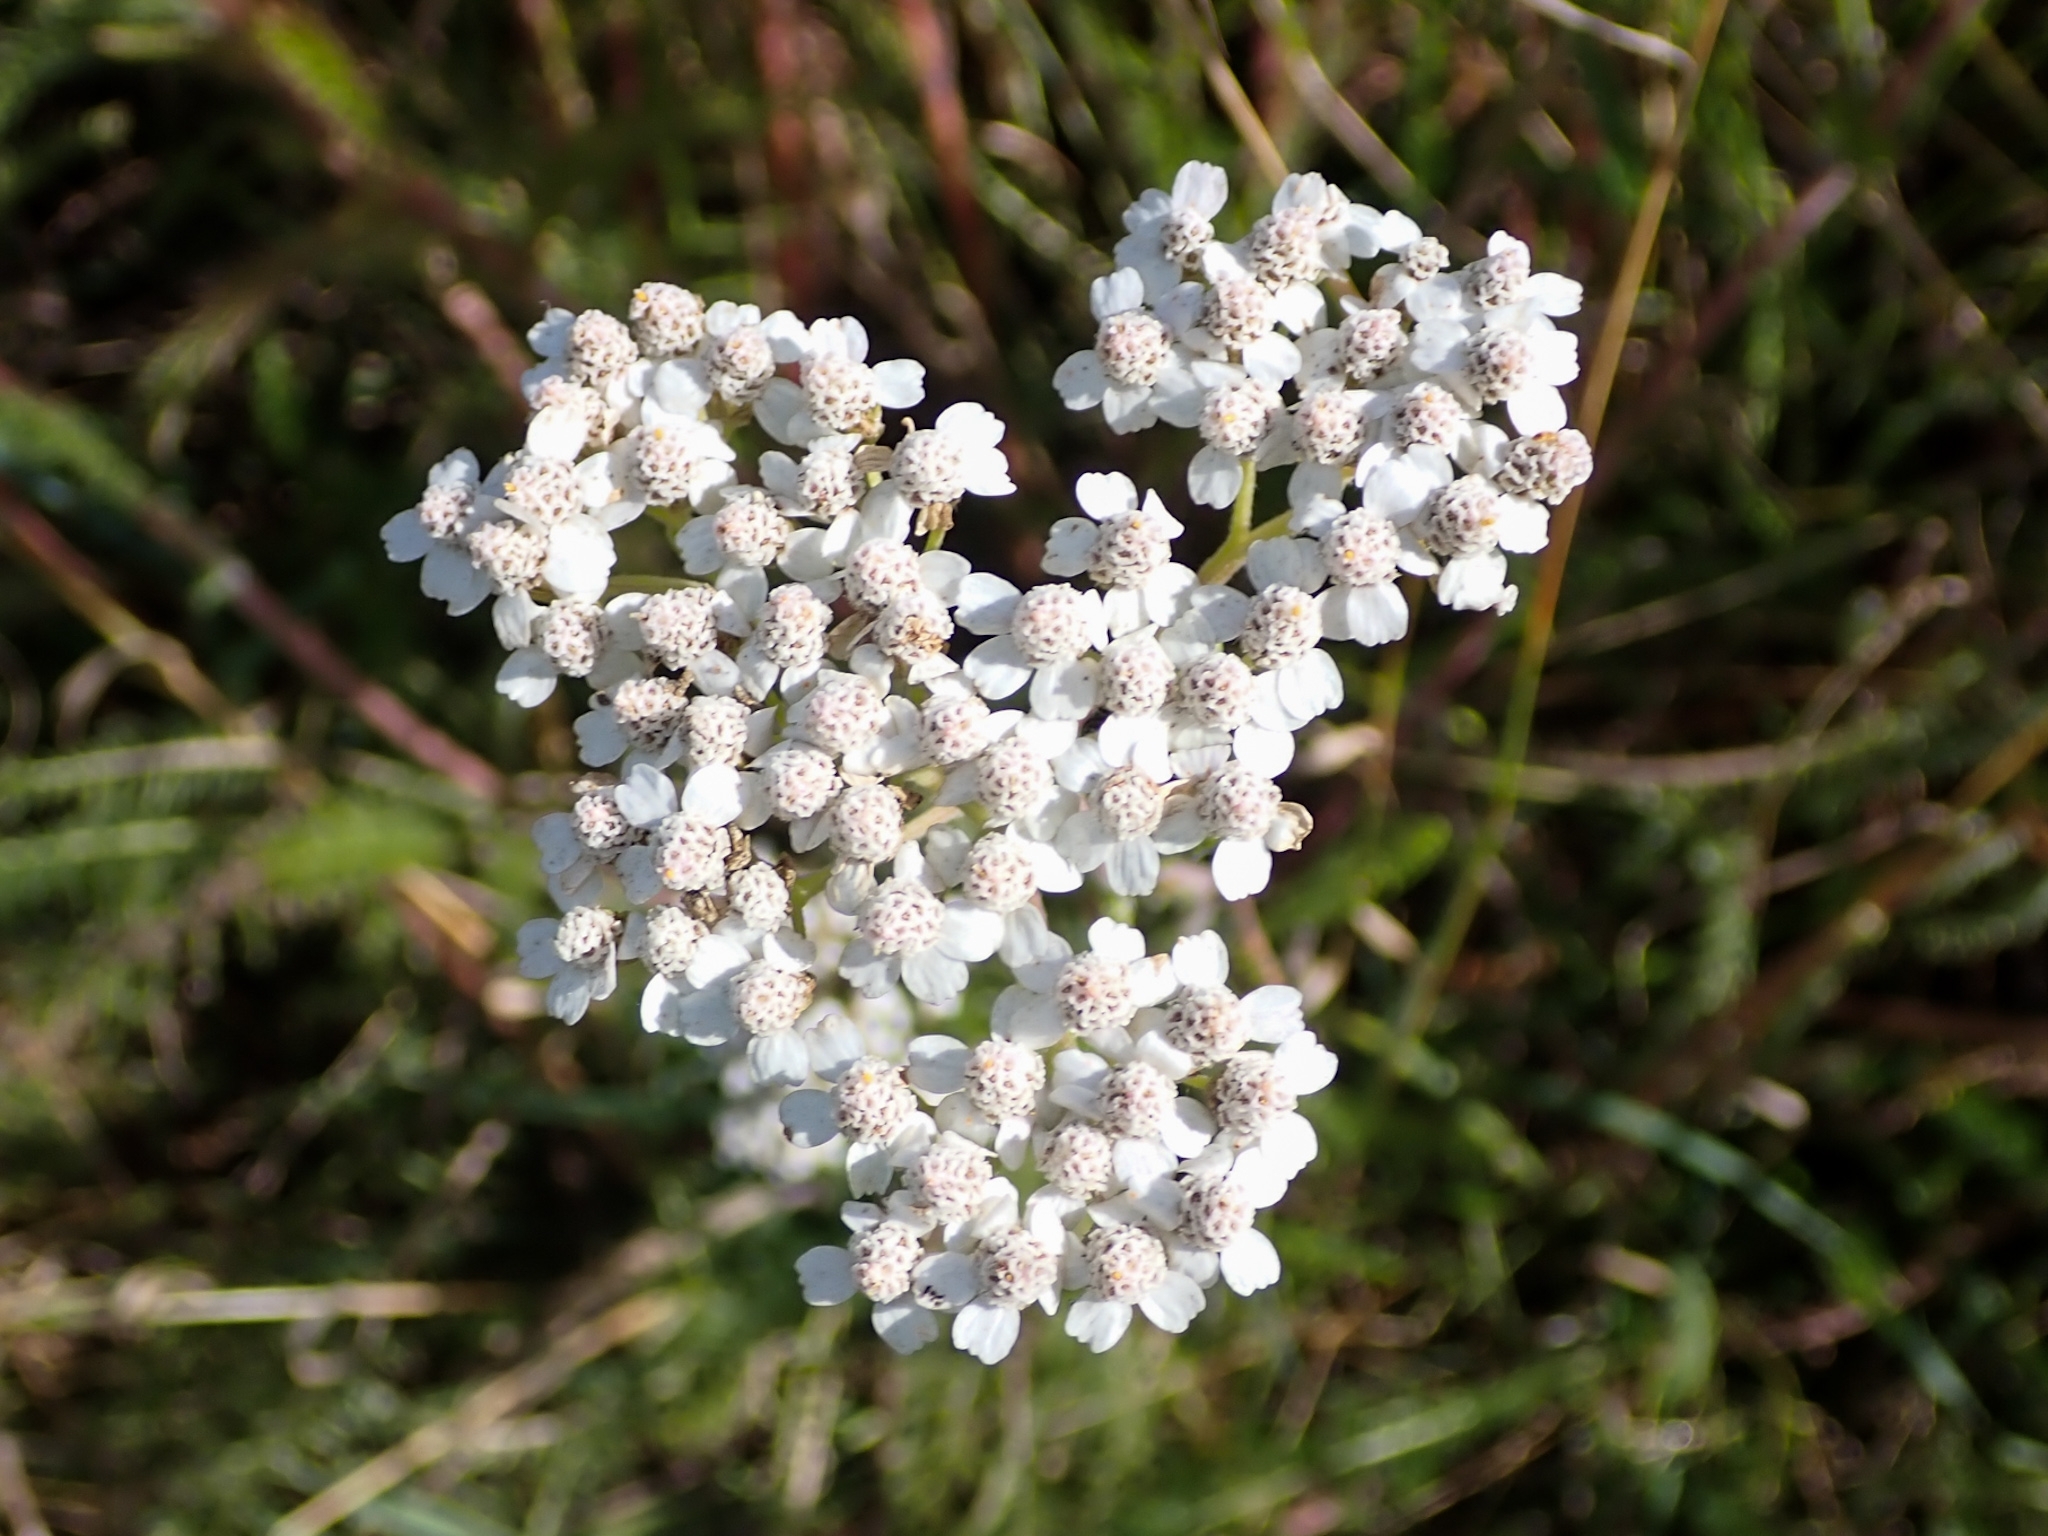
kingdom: Plantae
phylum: Tracheophyta
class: Magnoliopsida
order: Asterales
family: Asteraceae
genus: Achillea
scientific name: Achillea millefolium
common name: Yarrow
